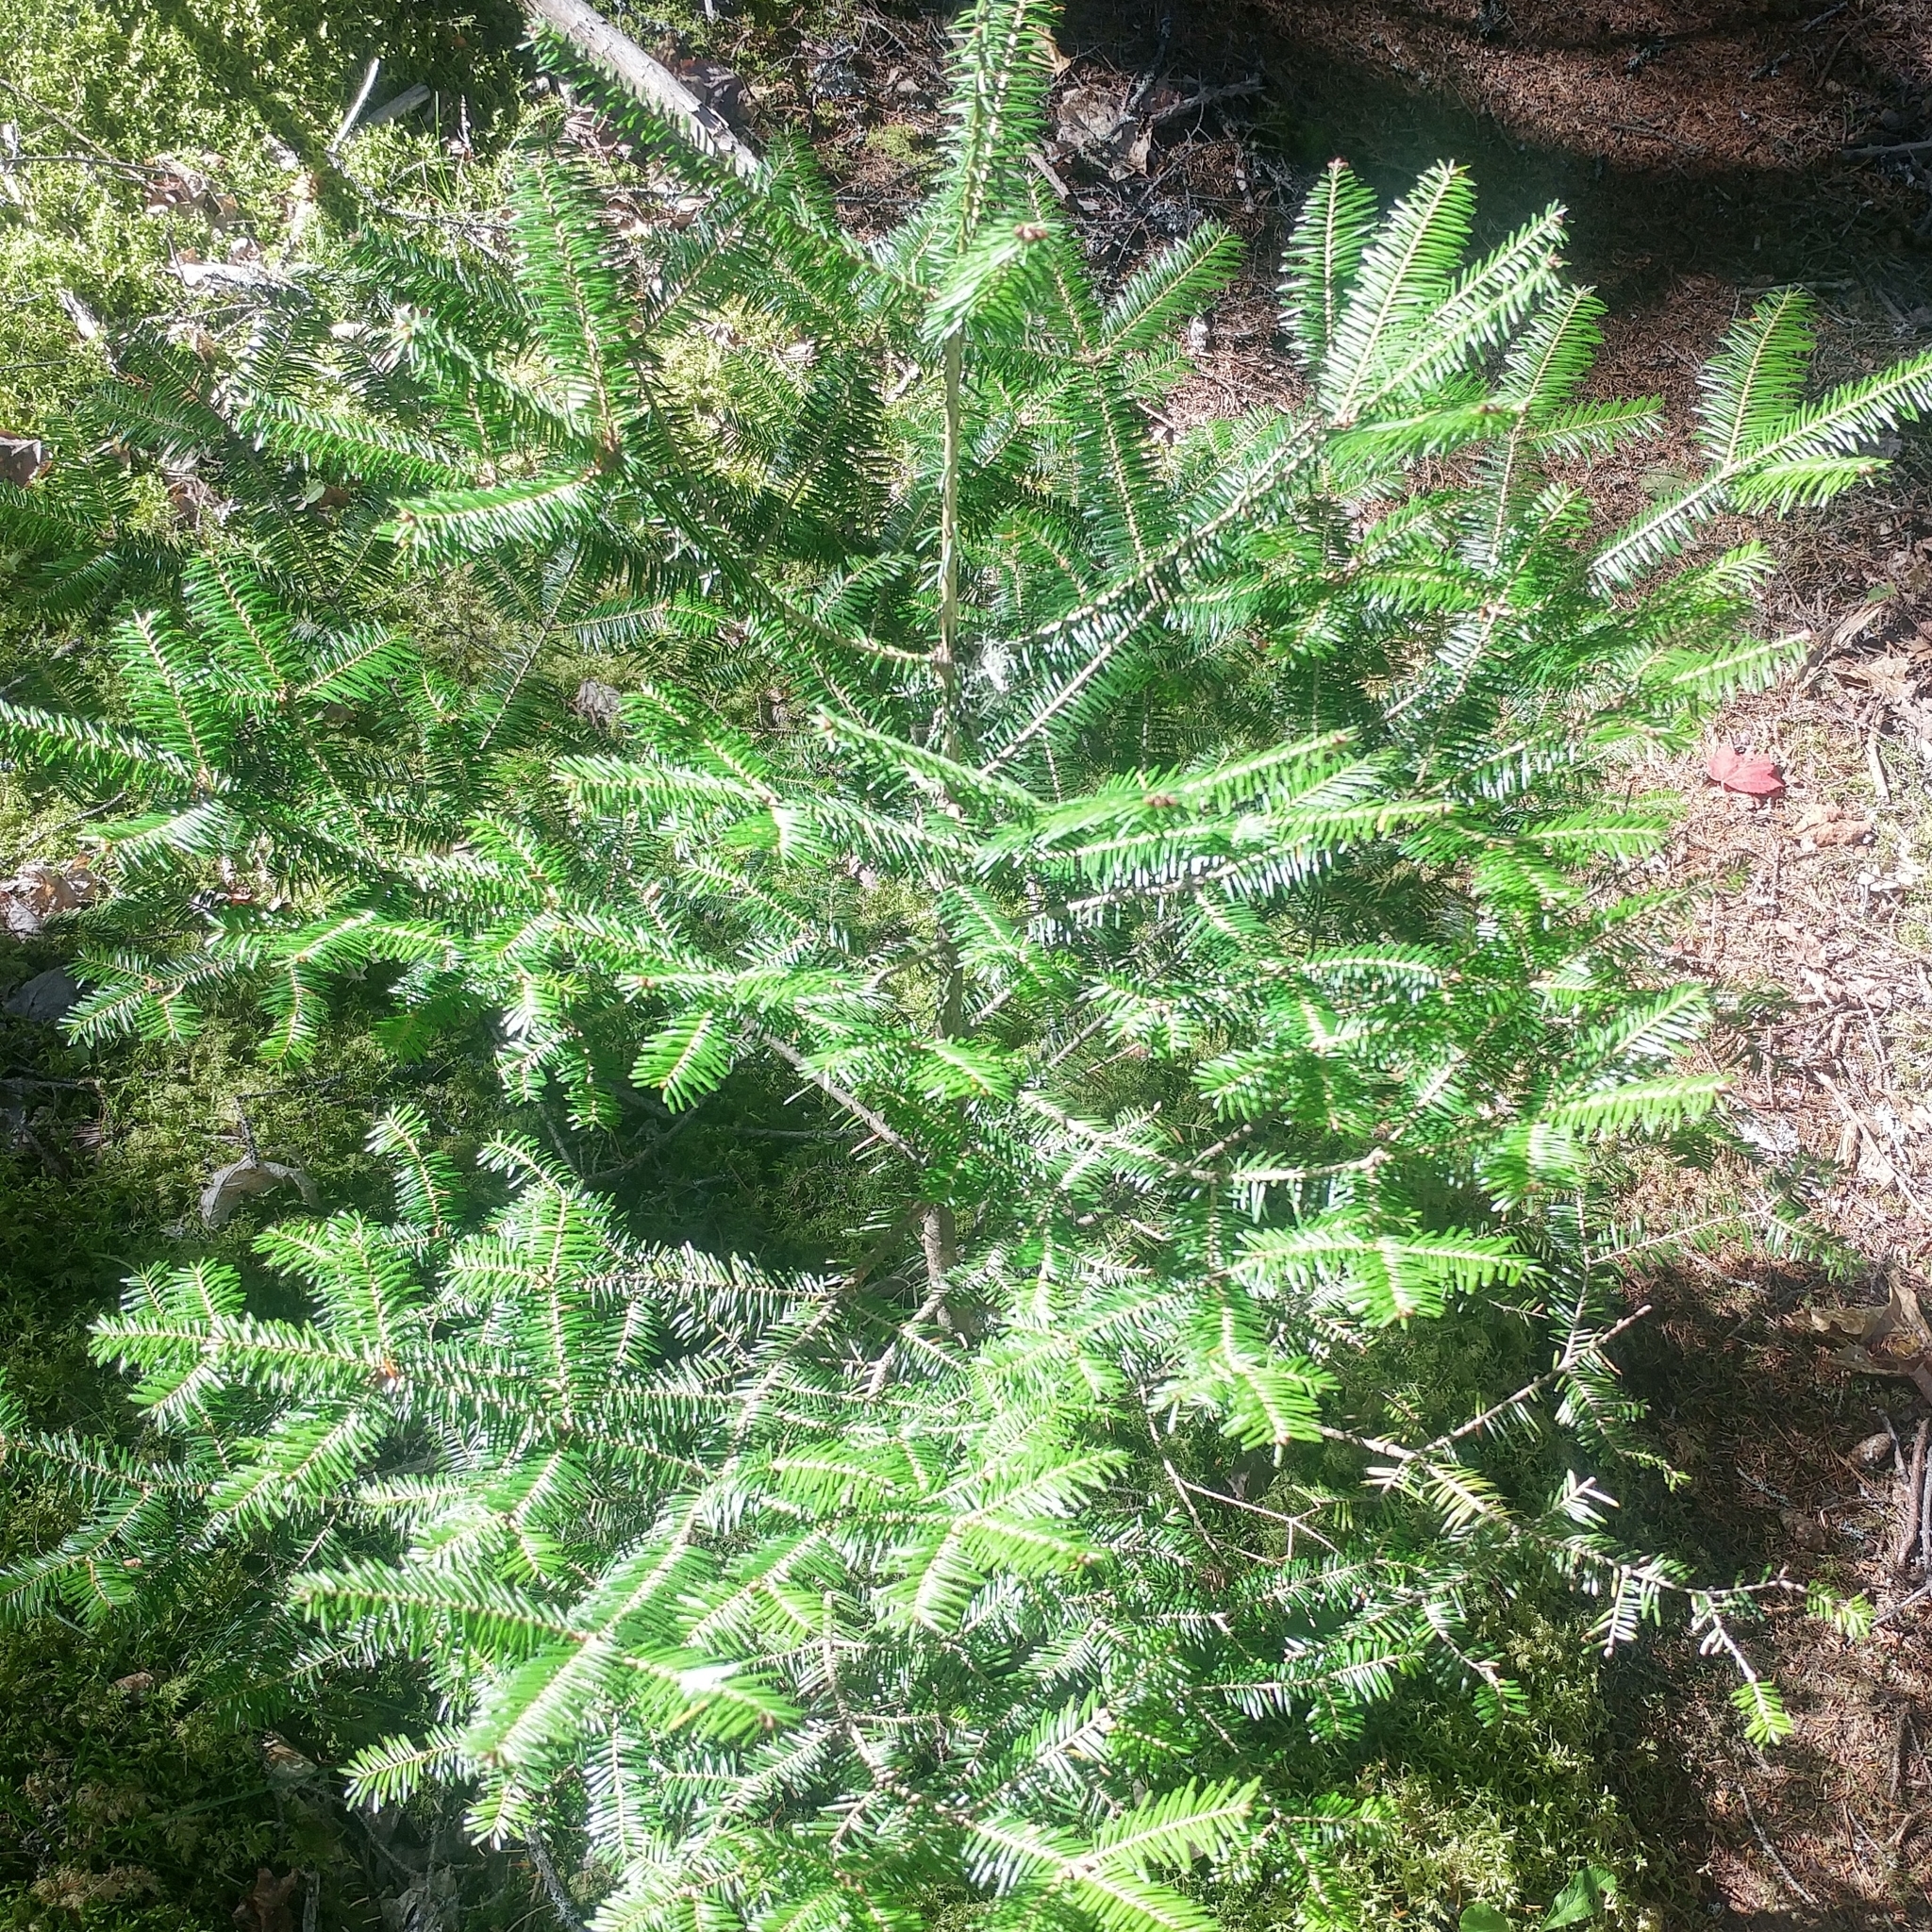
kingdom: Plantae
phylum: Tracheophyta
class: Pinopsida
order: Pinales
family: Pinaceae
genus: Abies
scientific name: Abies balsamea
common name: Balsam fir
